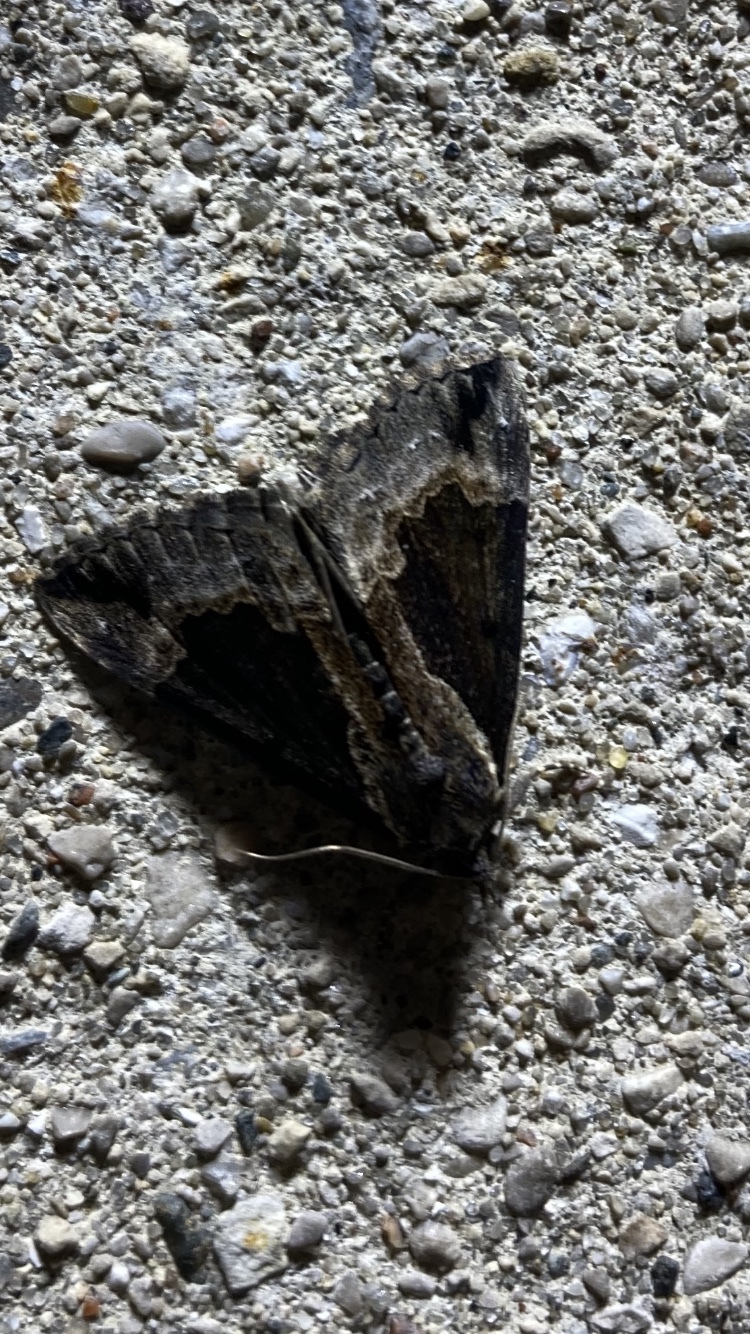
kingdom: Animalia
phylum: Arthropoda
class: Insecta
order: Lepidoptera
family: Erebidae
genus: Hypena
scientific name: Hypena baltimoralis
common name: Baltimore snout
